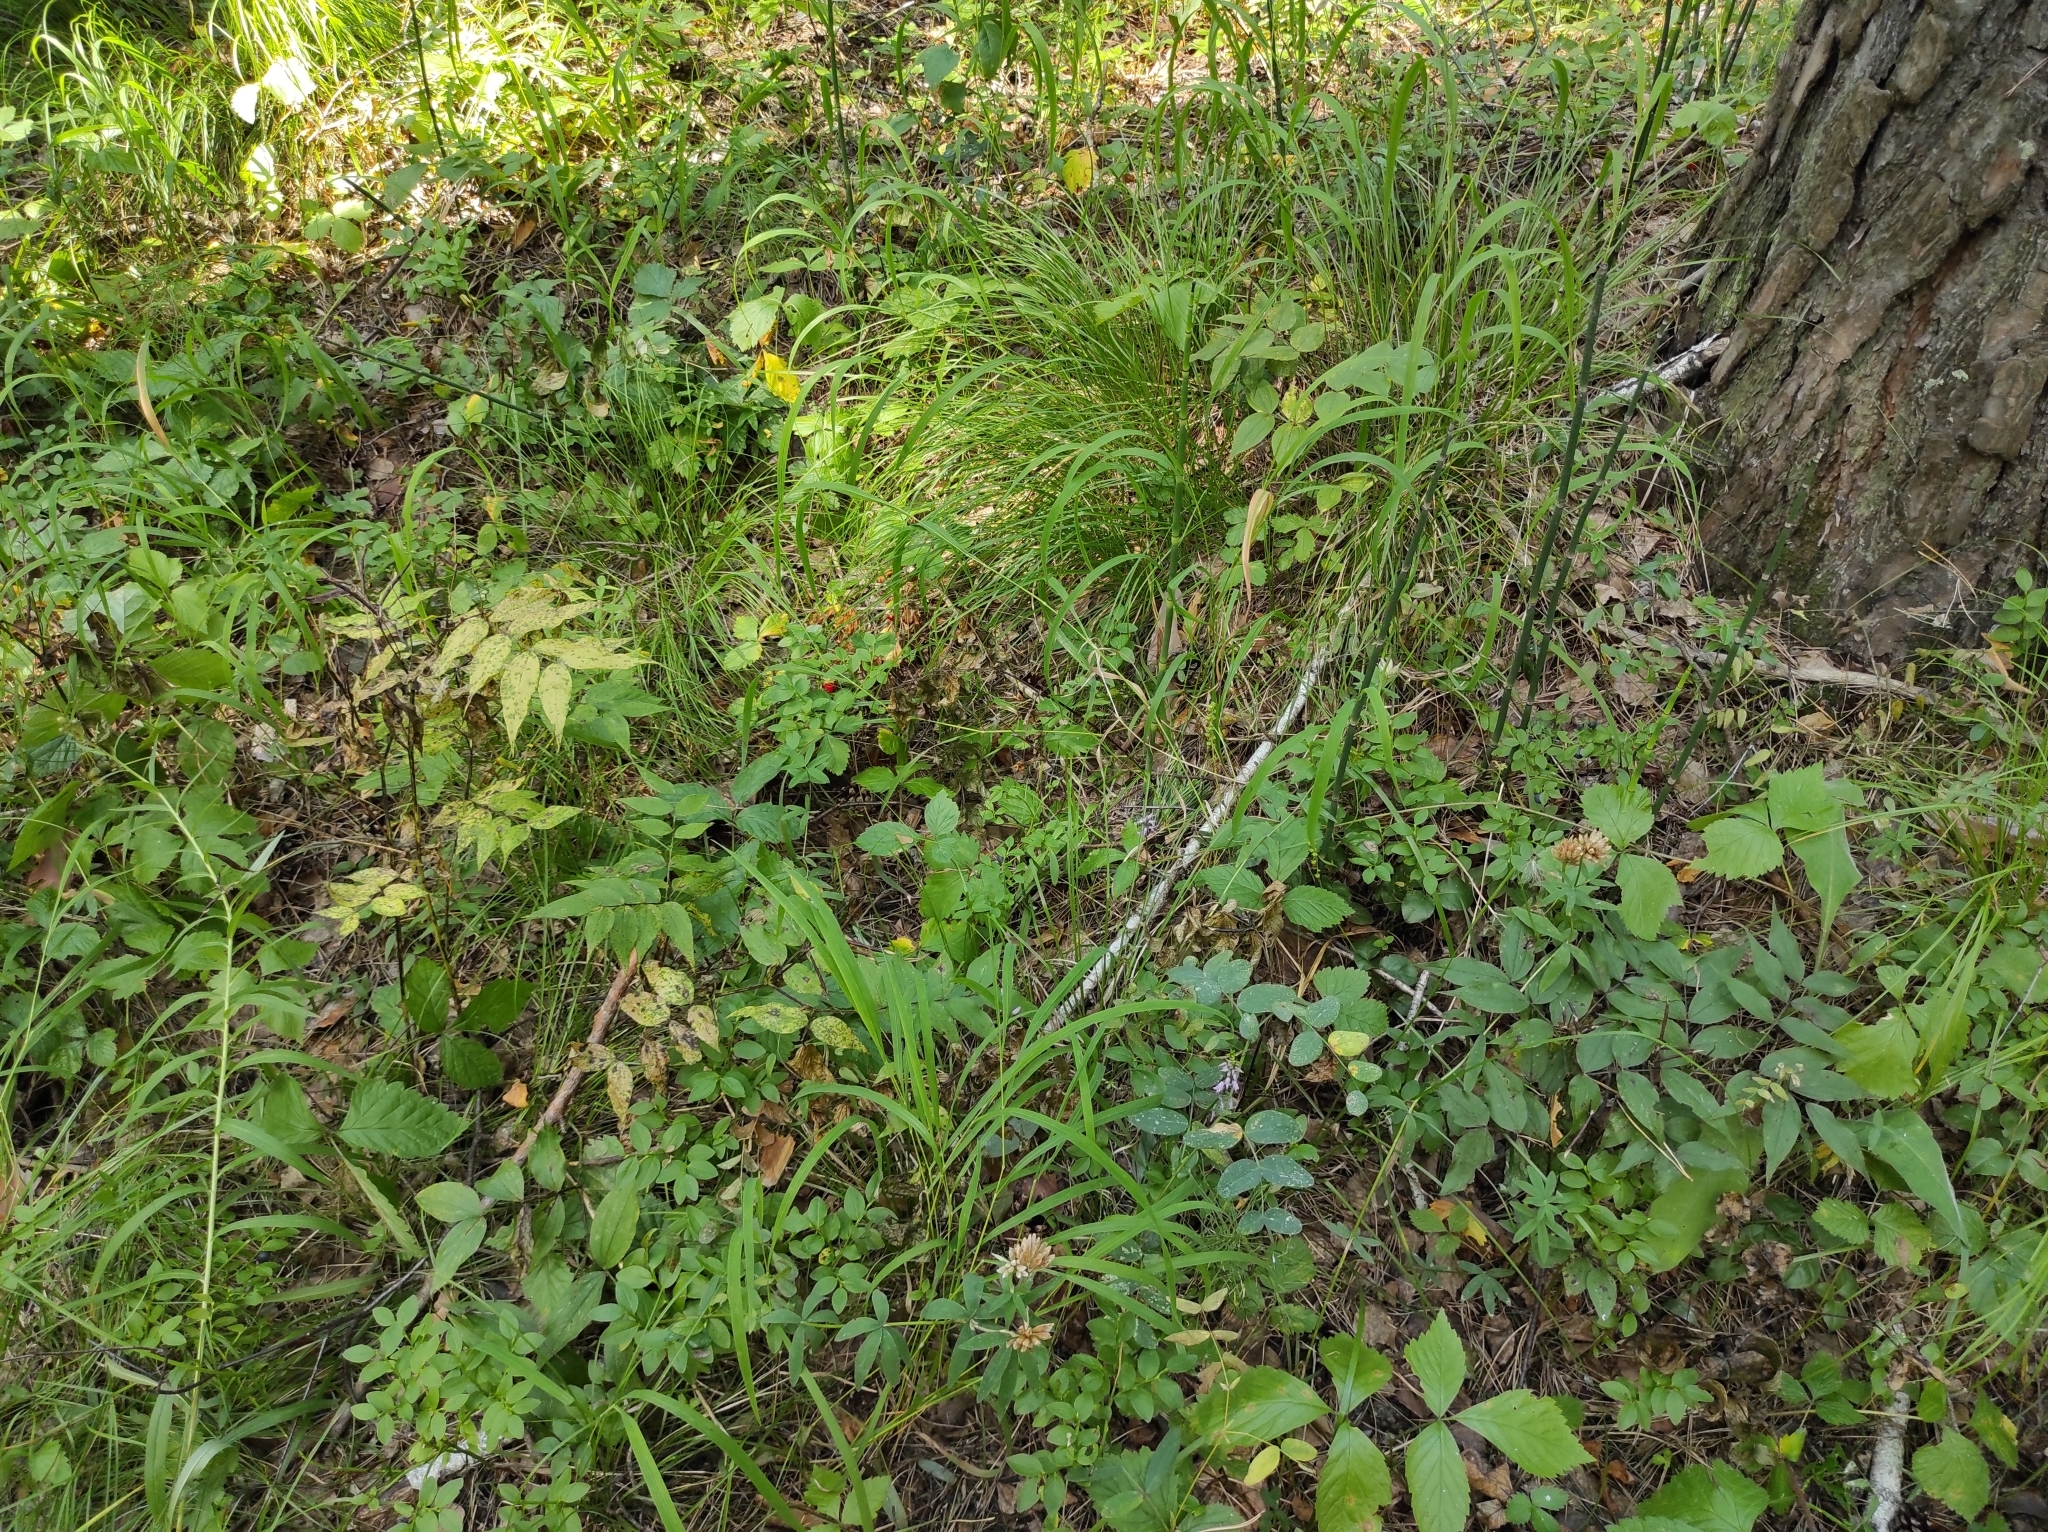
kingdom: Plantae
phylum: Tracheophyta
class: Liliopsida
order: Asparagales
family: Orchidaceae
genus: Hemipilia
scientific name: Hemipilia cucullata
